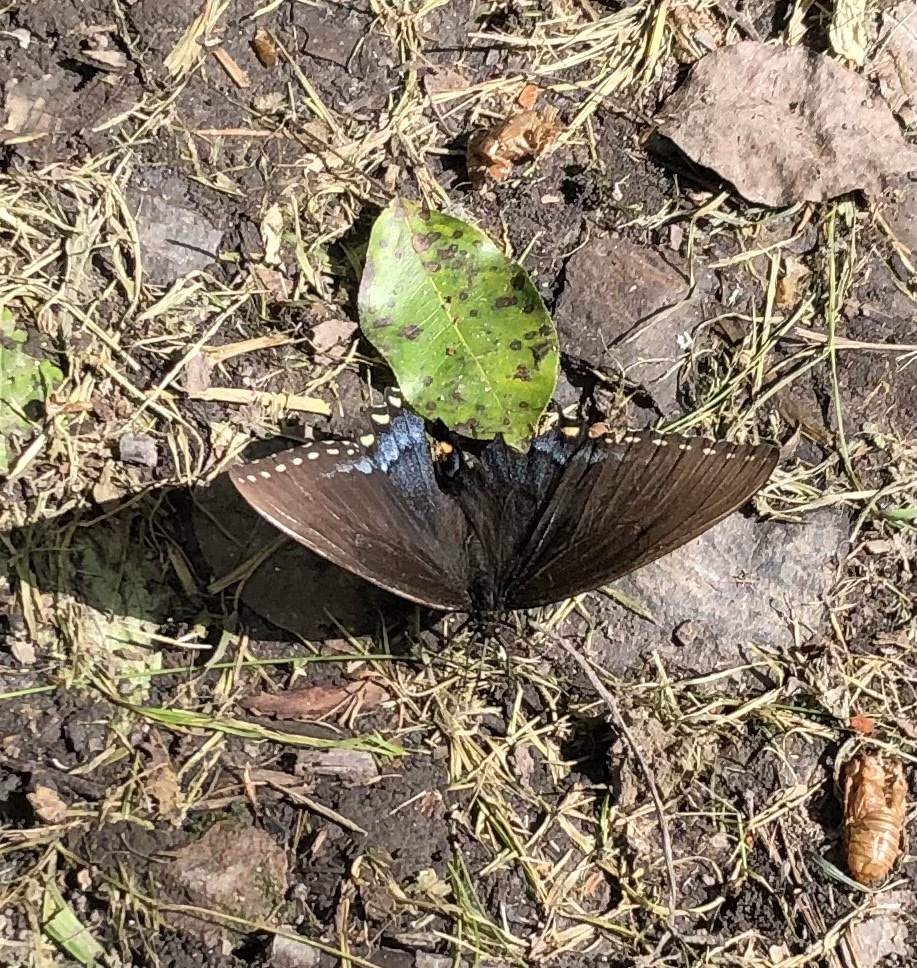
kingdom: Animalia
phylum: Arthropoda
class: Insecta
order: Lepidoptera
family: Papilionidae
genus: Papilio
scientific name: Papilio glaucus
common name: Tiger swallowtail
